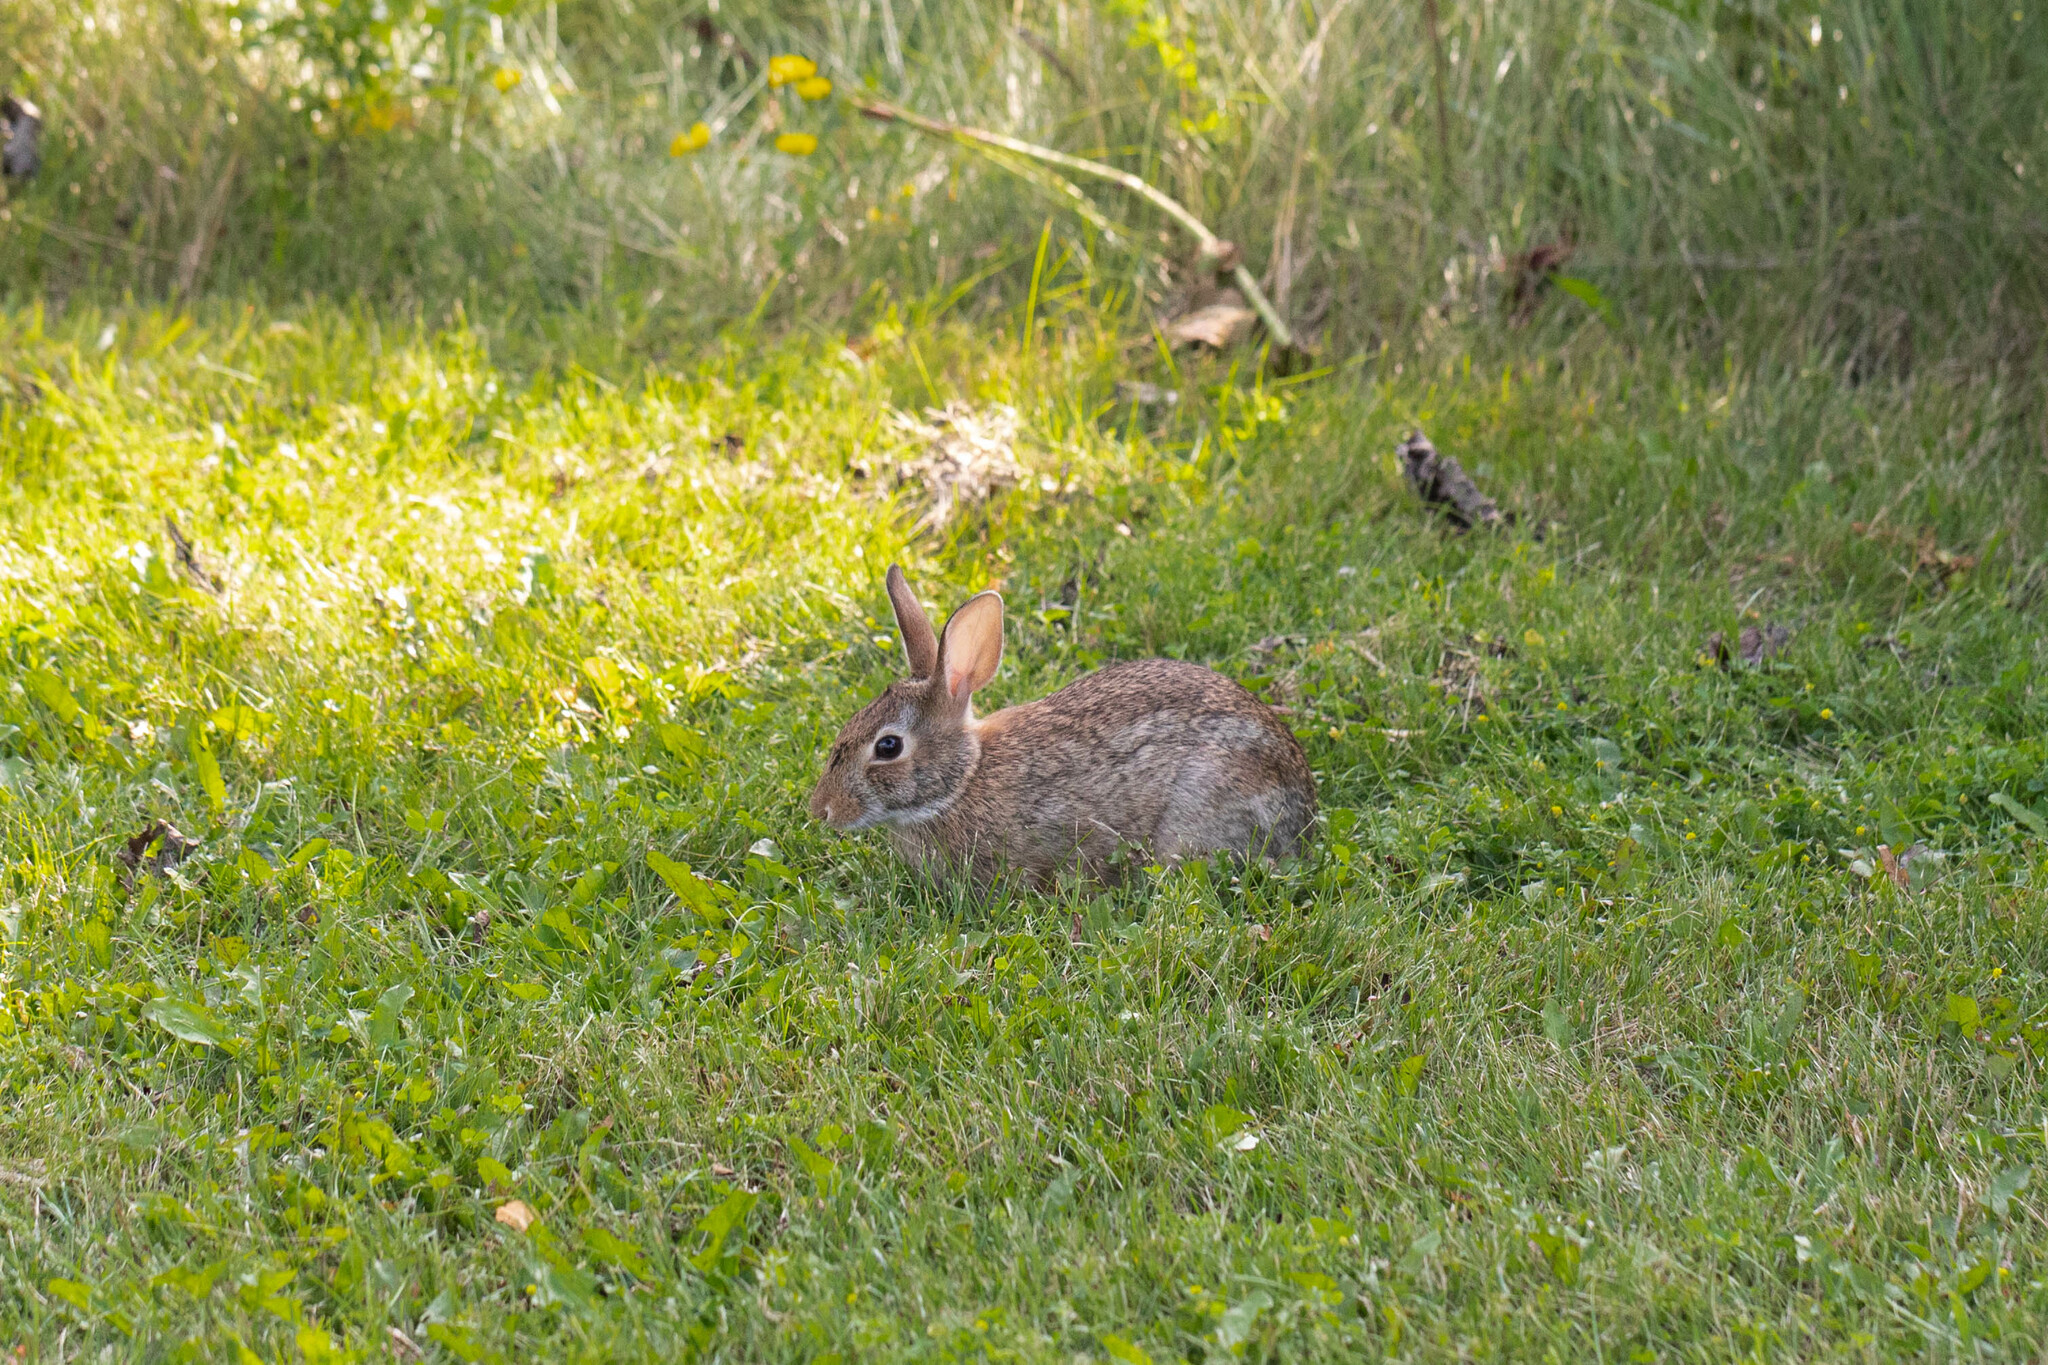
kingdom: Animalia
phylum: Chordata
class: Mammalia
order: Lagomorpha
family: Leporidae
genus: Sylvilagus
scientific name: Sylvilagus floridanus
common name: Eastern cottontail
